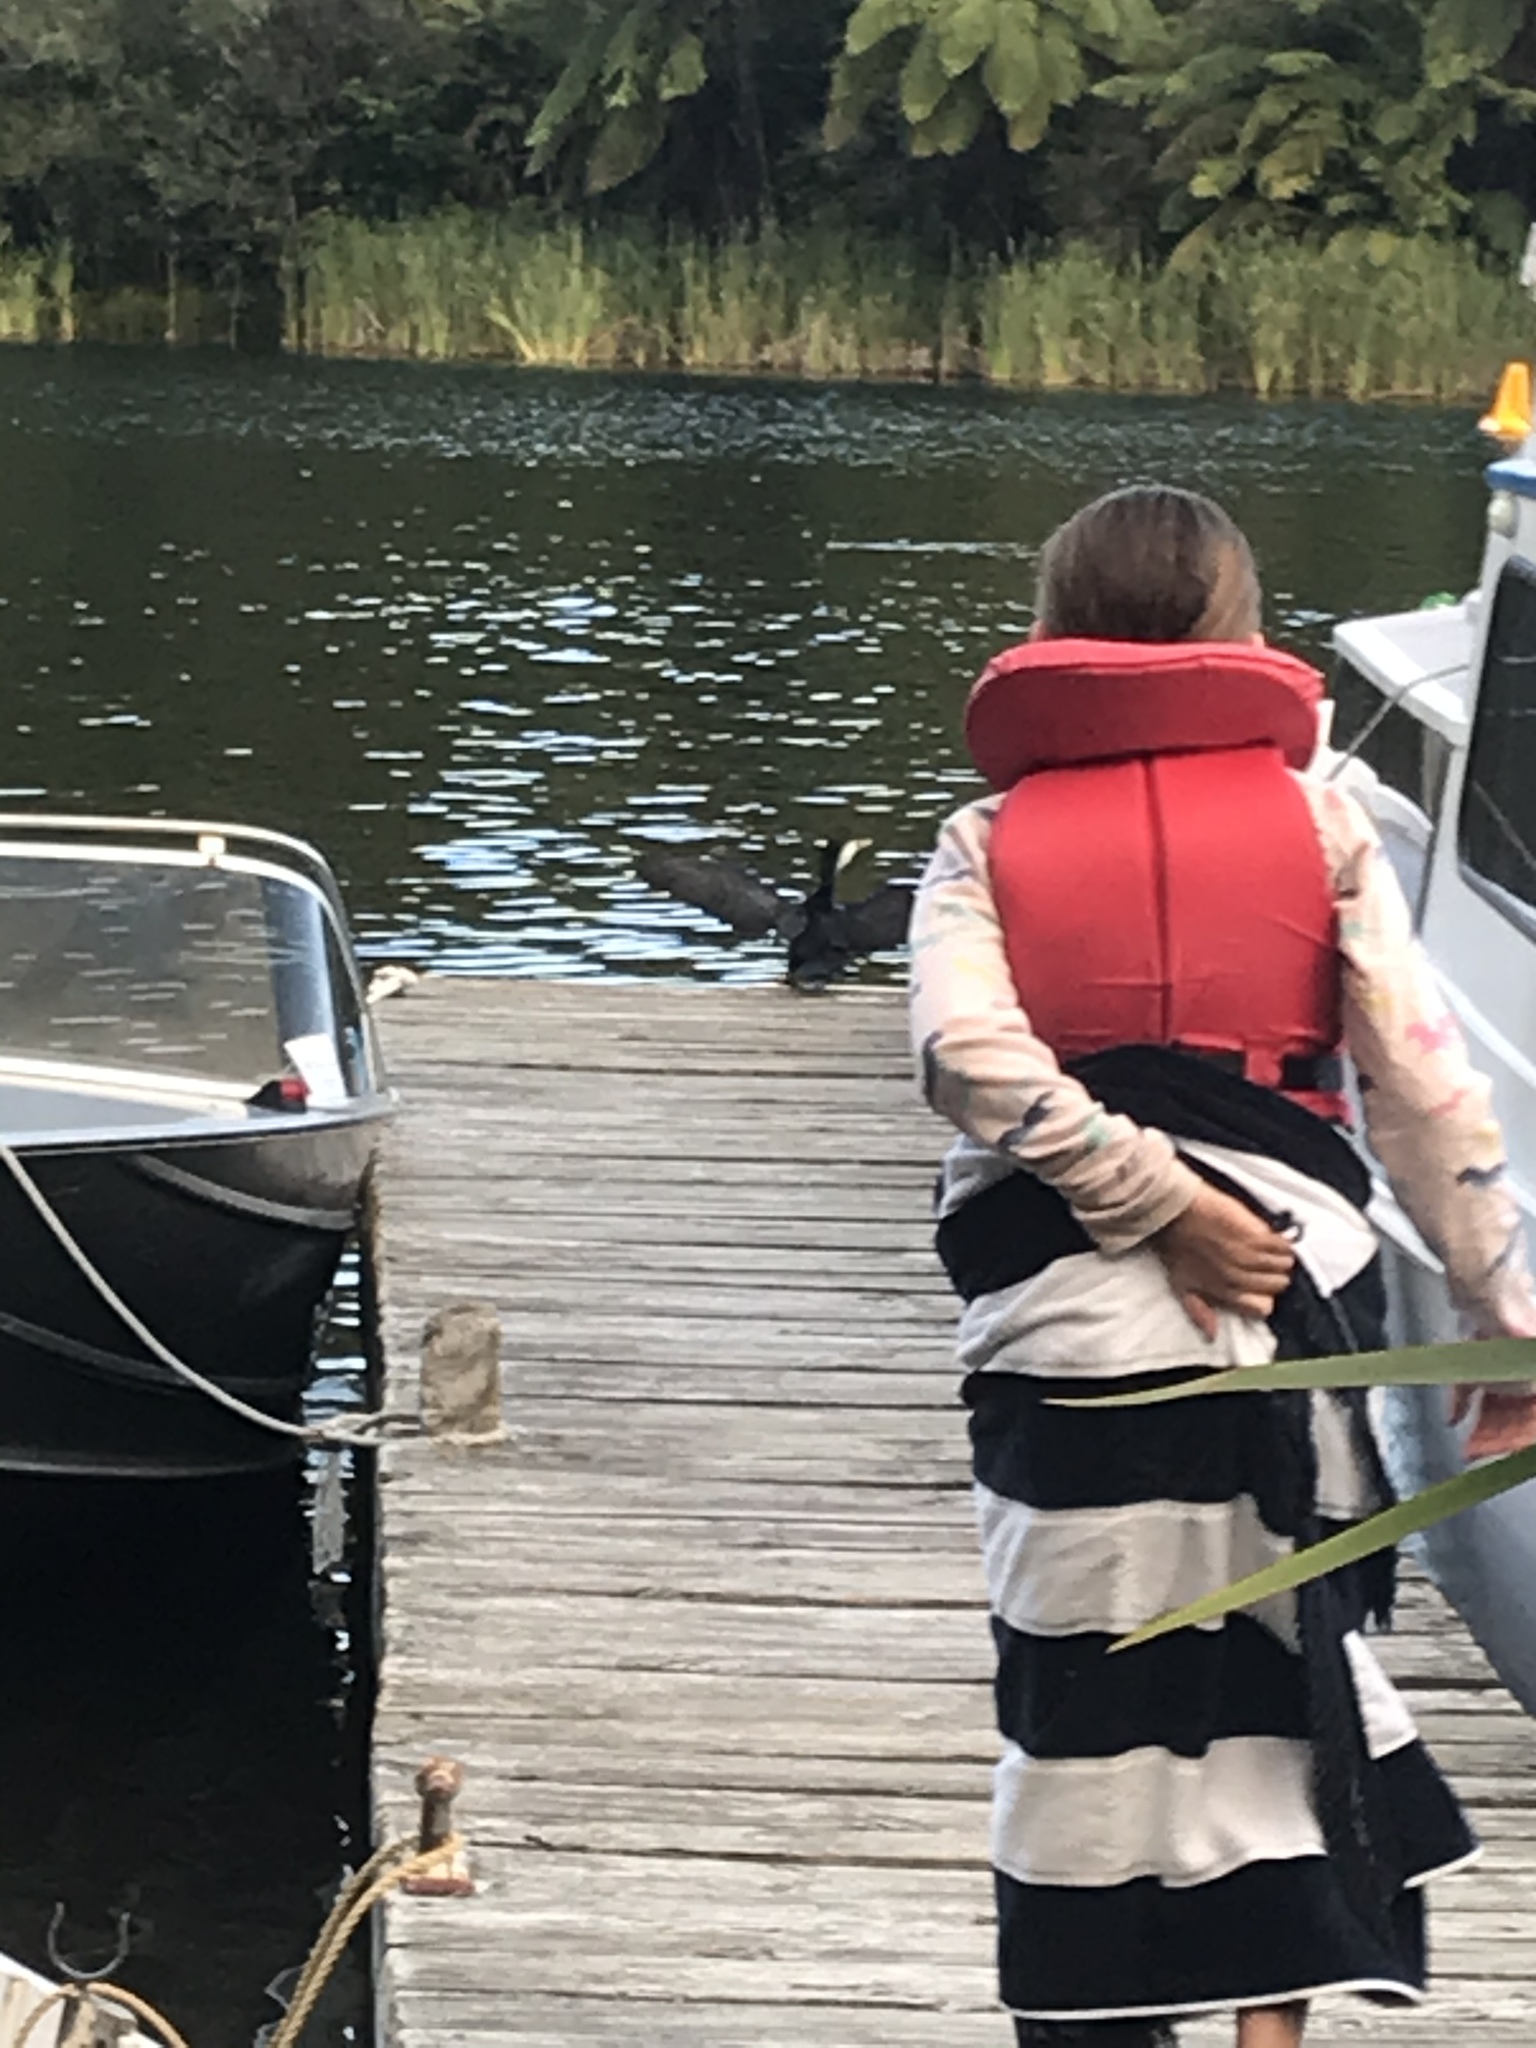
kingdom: Animalia
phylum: Chordata
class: Aves
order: Suliformes
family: Phalacrocoracidae
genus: Microcarbo
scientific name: Microcarbo melanoleucos
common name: Little pied cormorant
